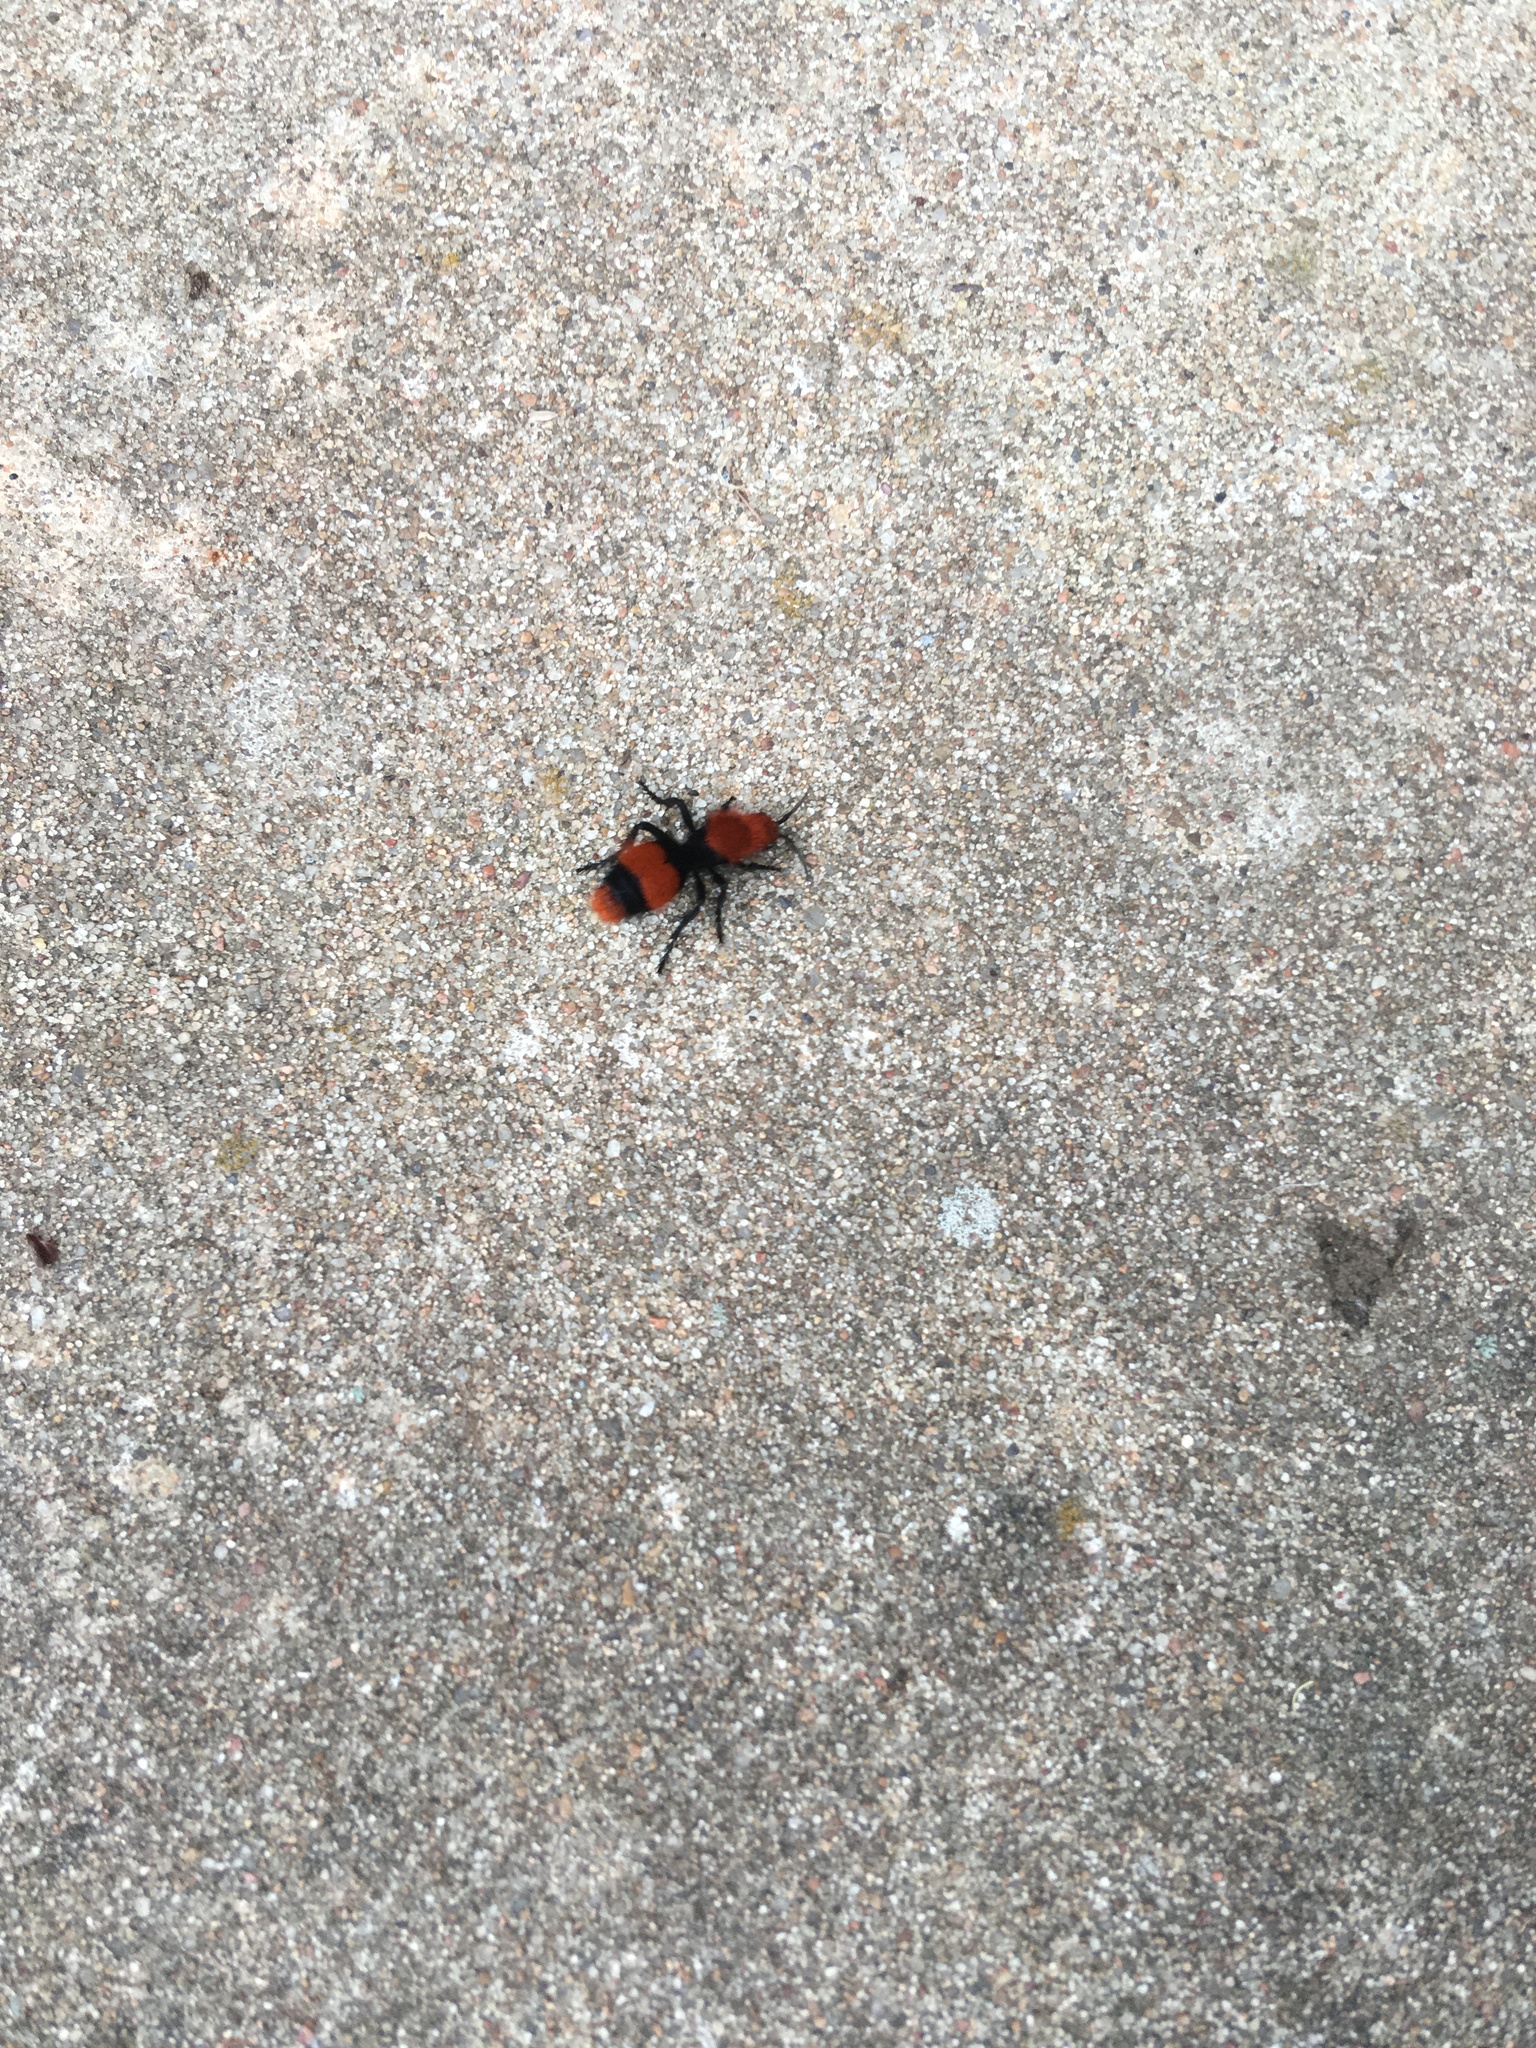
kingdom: Animalia
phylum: Arthropoda
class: Insecta
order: Hymenoptera
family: Mutillidae
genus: Dasymutilla
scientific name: Dasymutilla occidentalis
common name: Common eastern velvet ant
